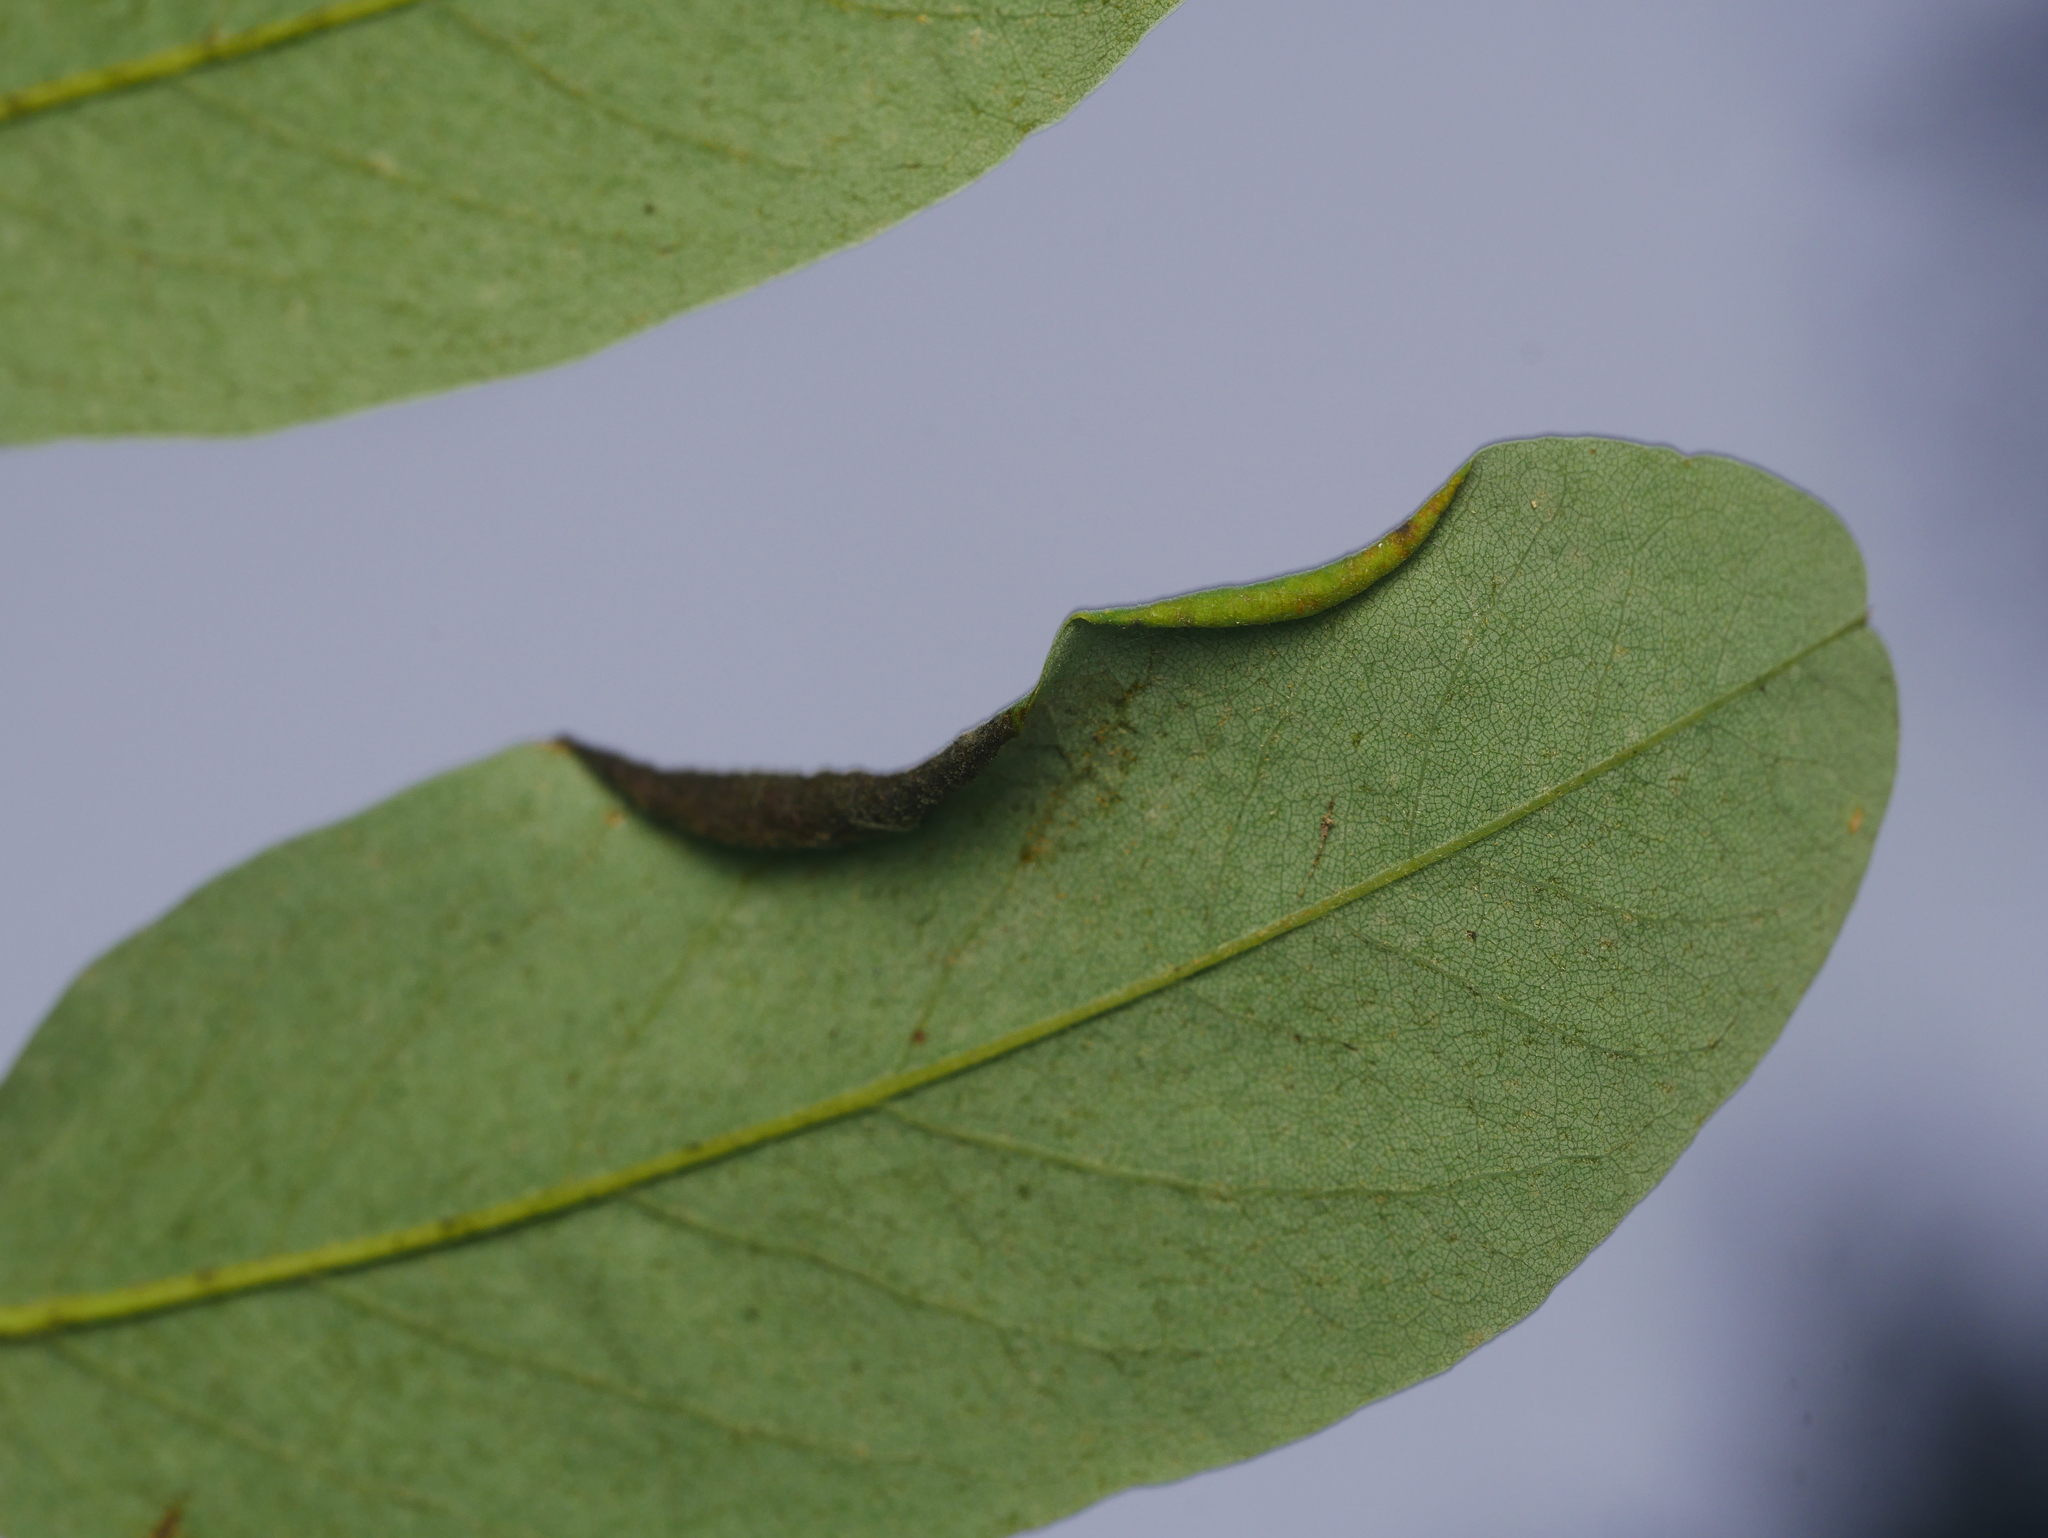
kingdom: Animalia
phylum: Arthropoda
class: Insecta
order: Diptera
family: Cecidomyiidae
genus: Obolodiplosis
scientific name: Obolodiplosis robiniae
